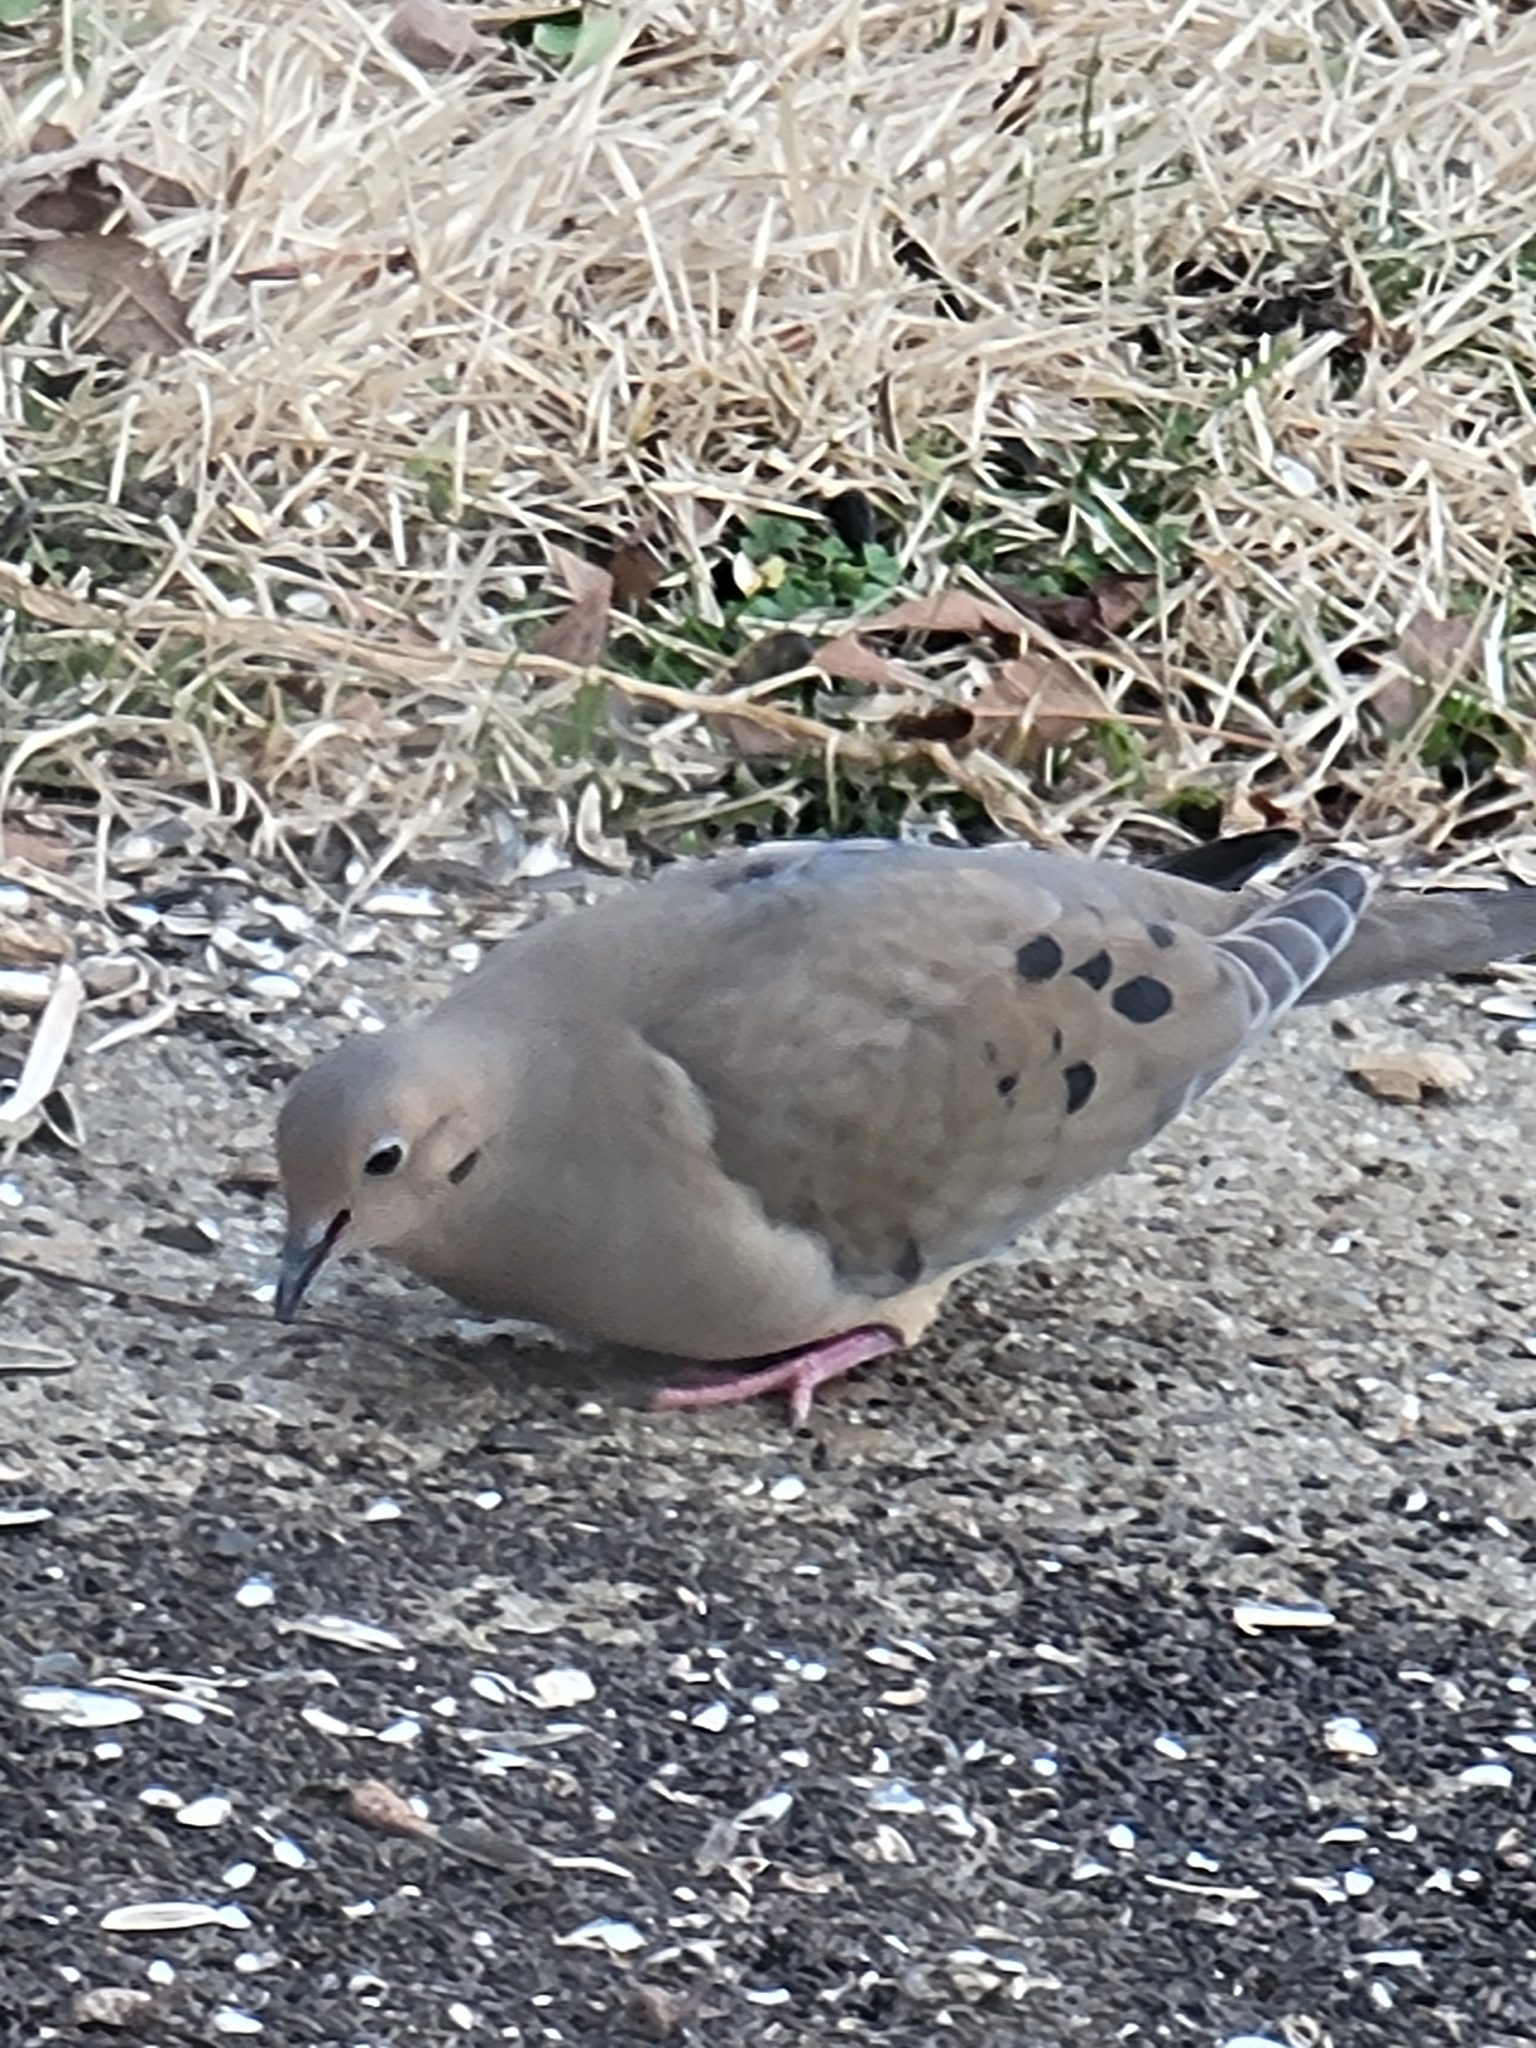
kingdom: Animalia
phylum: Chordata
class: Aves
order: Columbiformes
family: Columbidae
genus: Zenaida
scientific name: Zenaida macroura
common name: Mourning dove
